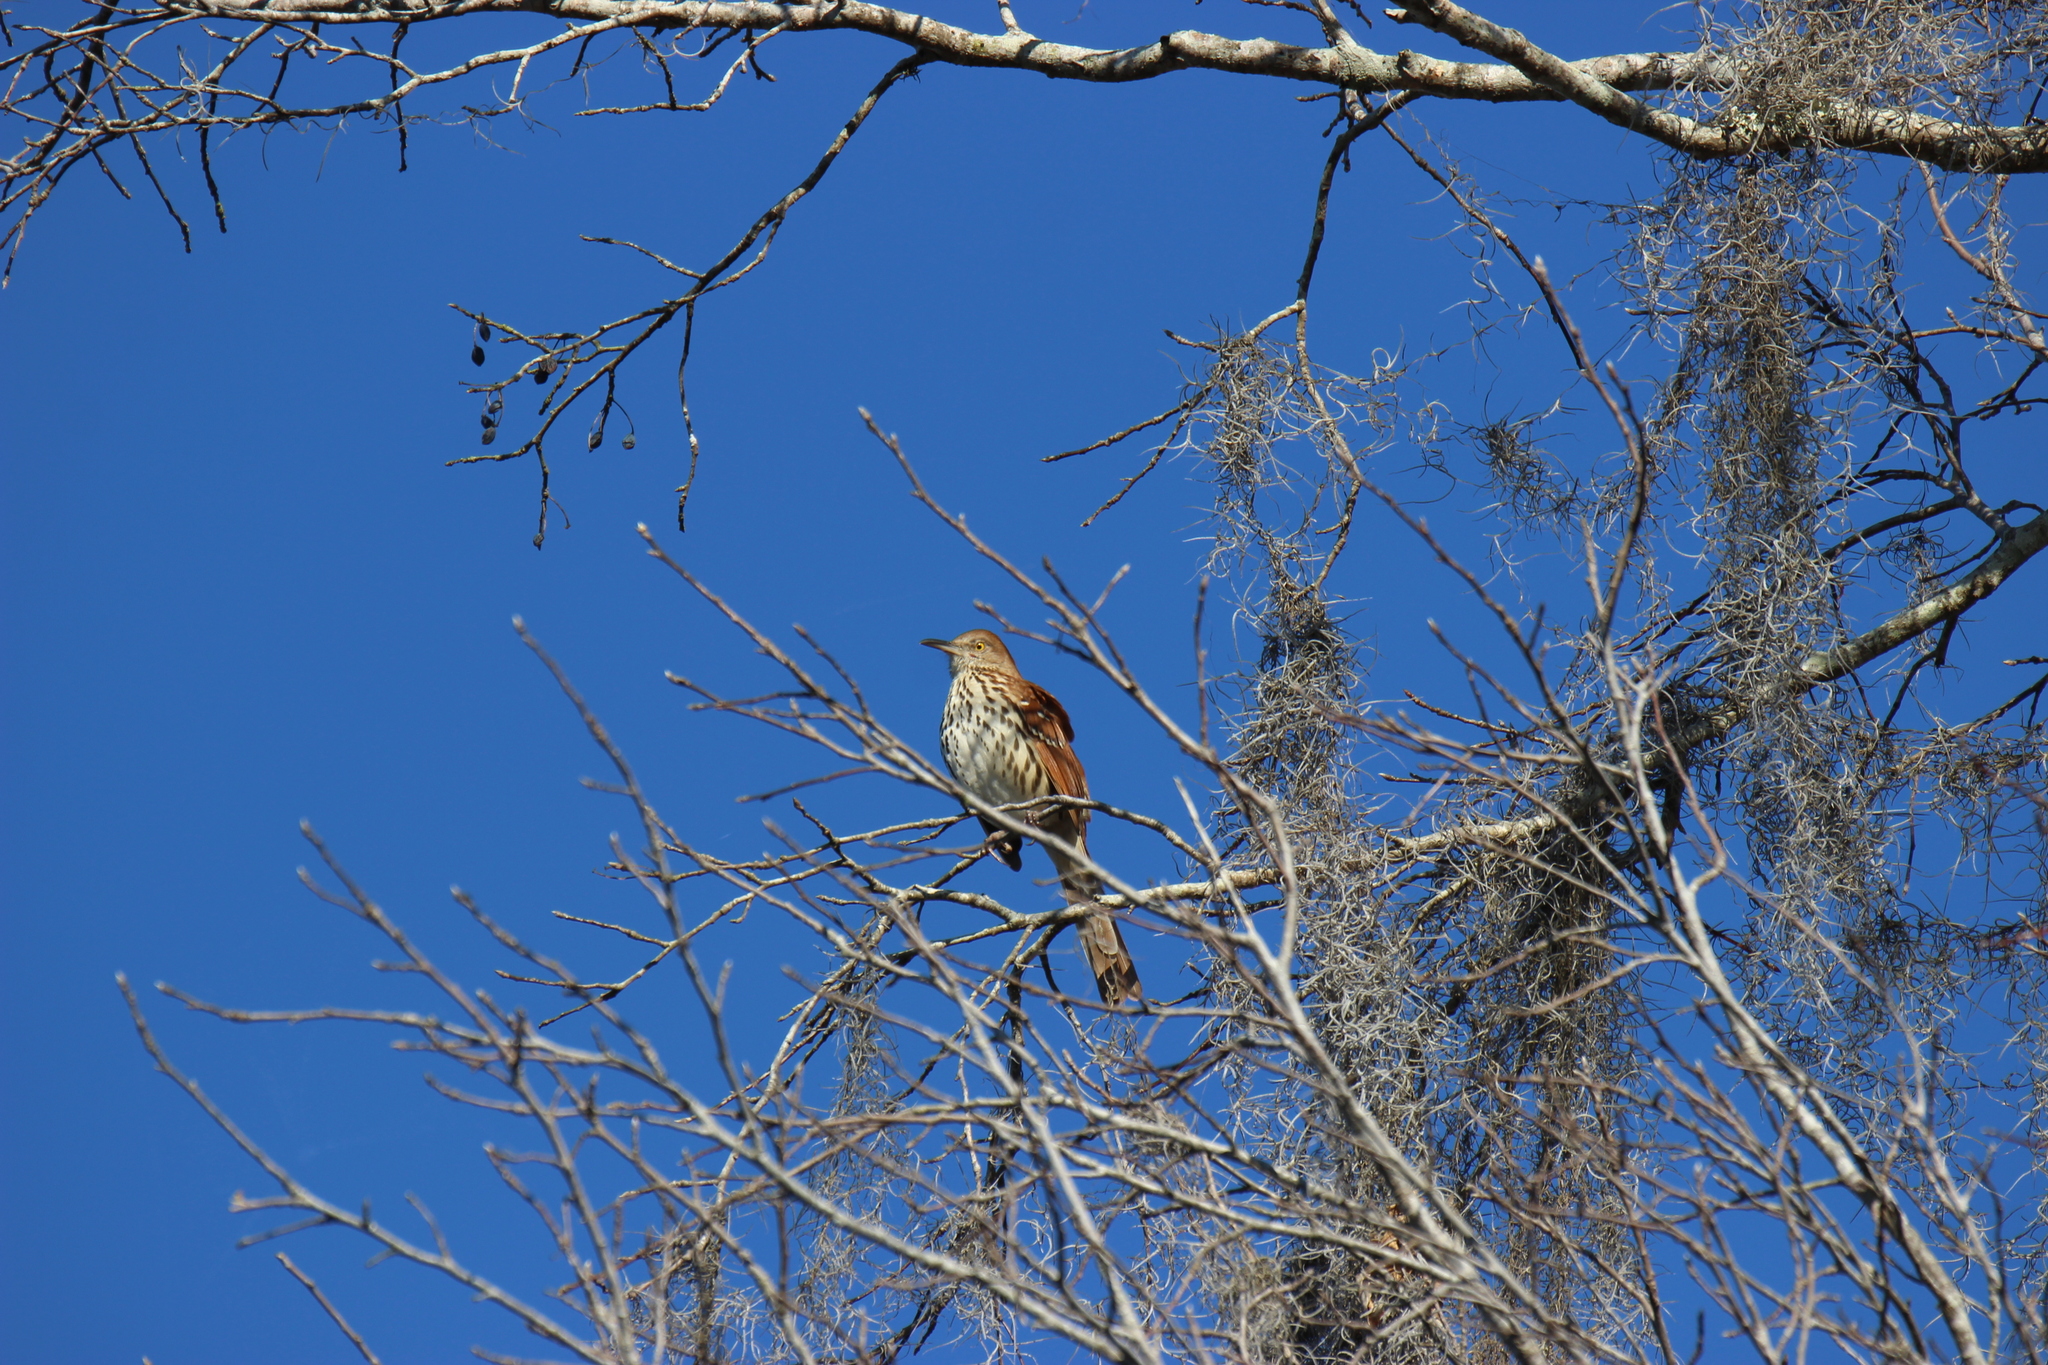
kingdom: Animalia
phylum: Chordata
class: Aves
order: Passeriformes
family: Mimidae
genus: Toxostoma
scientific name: Toxostoma rufum
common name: Brown thrasher
